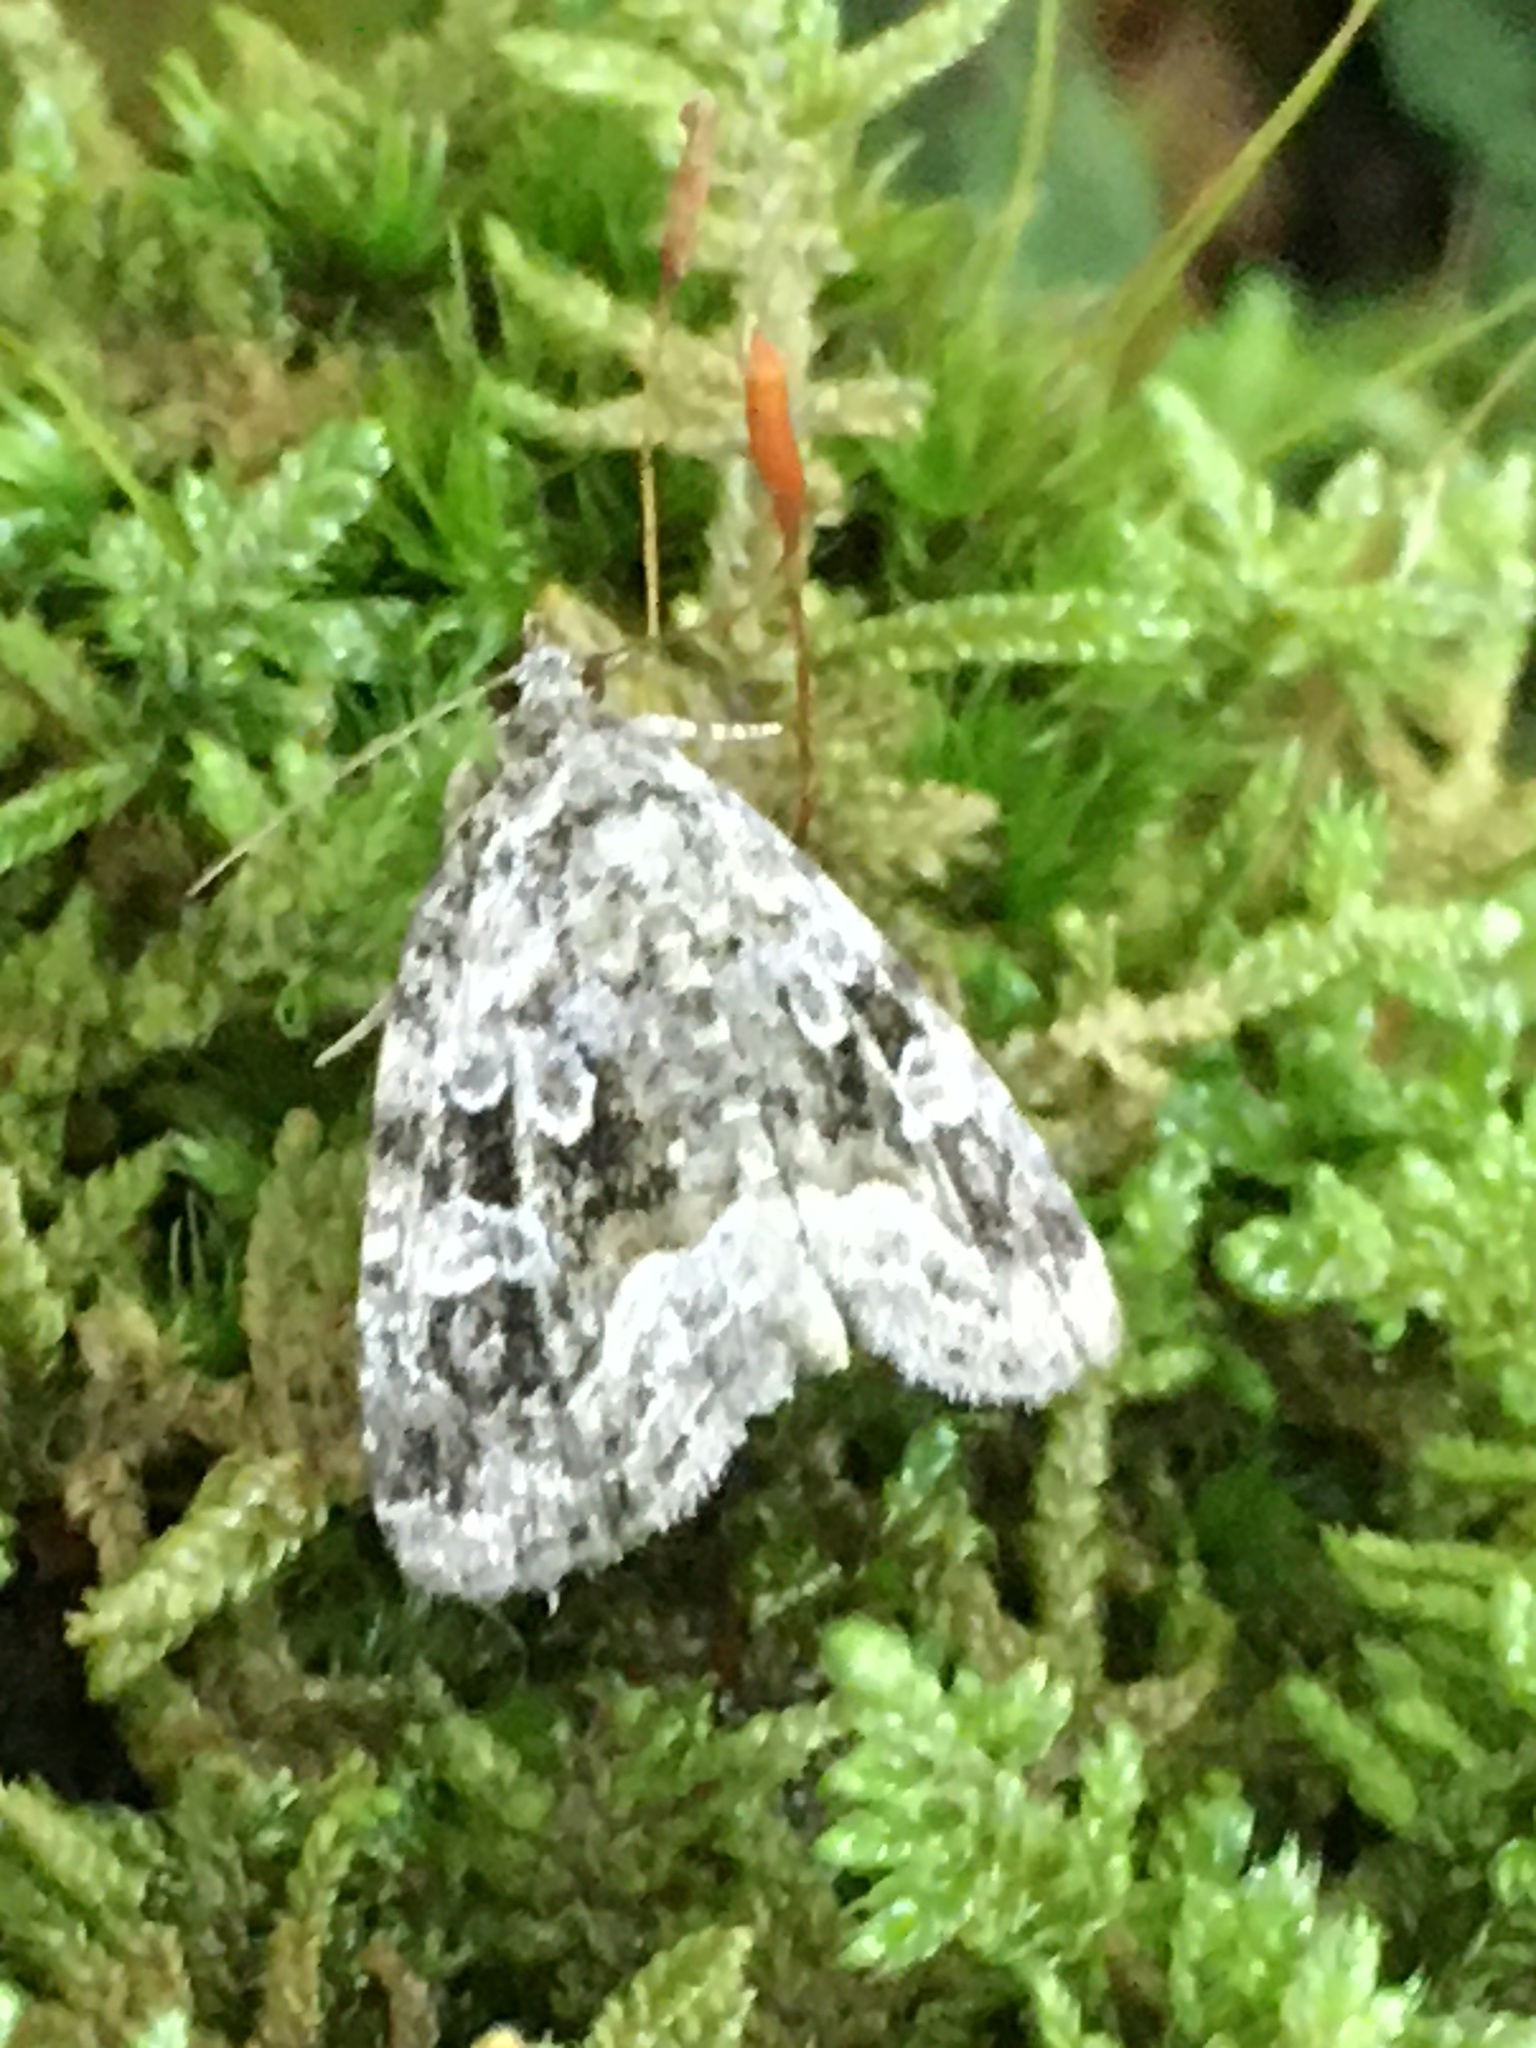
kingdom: Animalia
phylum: Arthropoda
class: Insecta
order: Lepidoptera
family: Noctuidae
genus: Protodeltote
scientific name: Protodeltote muscosula
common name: Large mossy glyph
